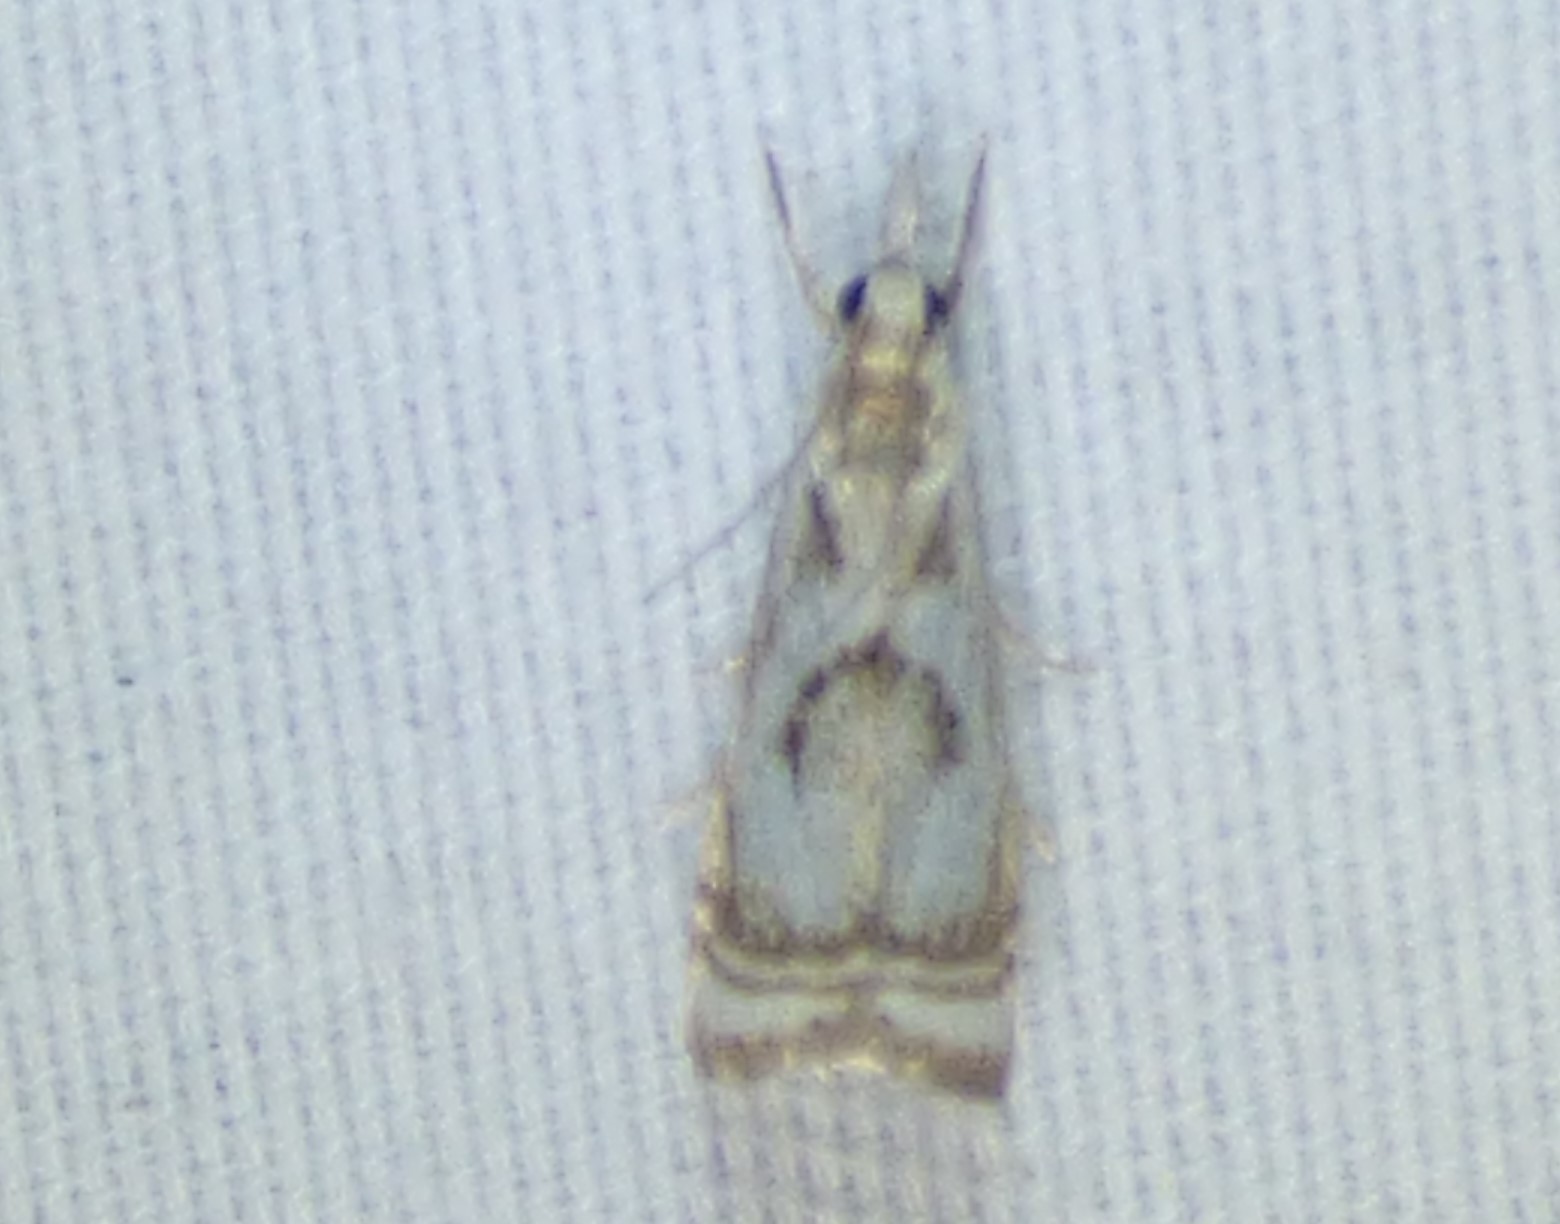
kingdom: Animalia
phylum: Arthropoda
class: Insecta
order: Lepidoptera
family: Crambidae
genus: Microcrambus
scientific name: Microcrambus elegans
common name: Elegant grass-veneer
